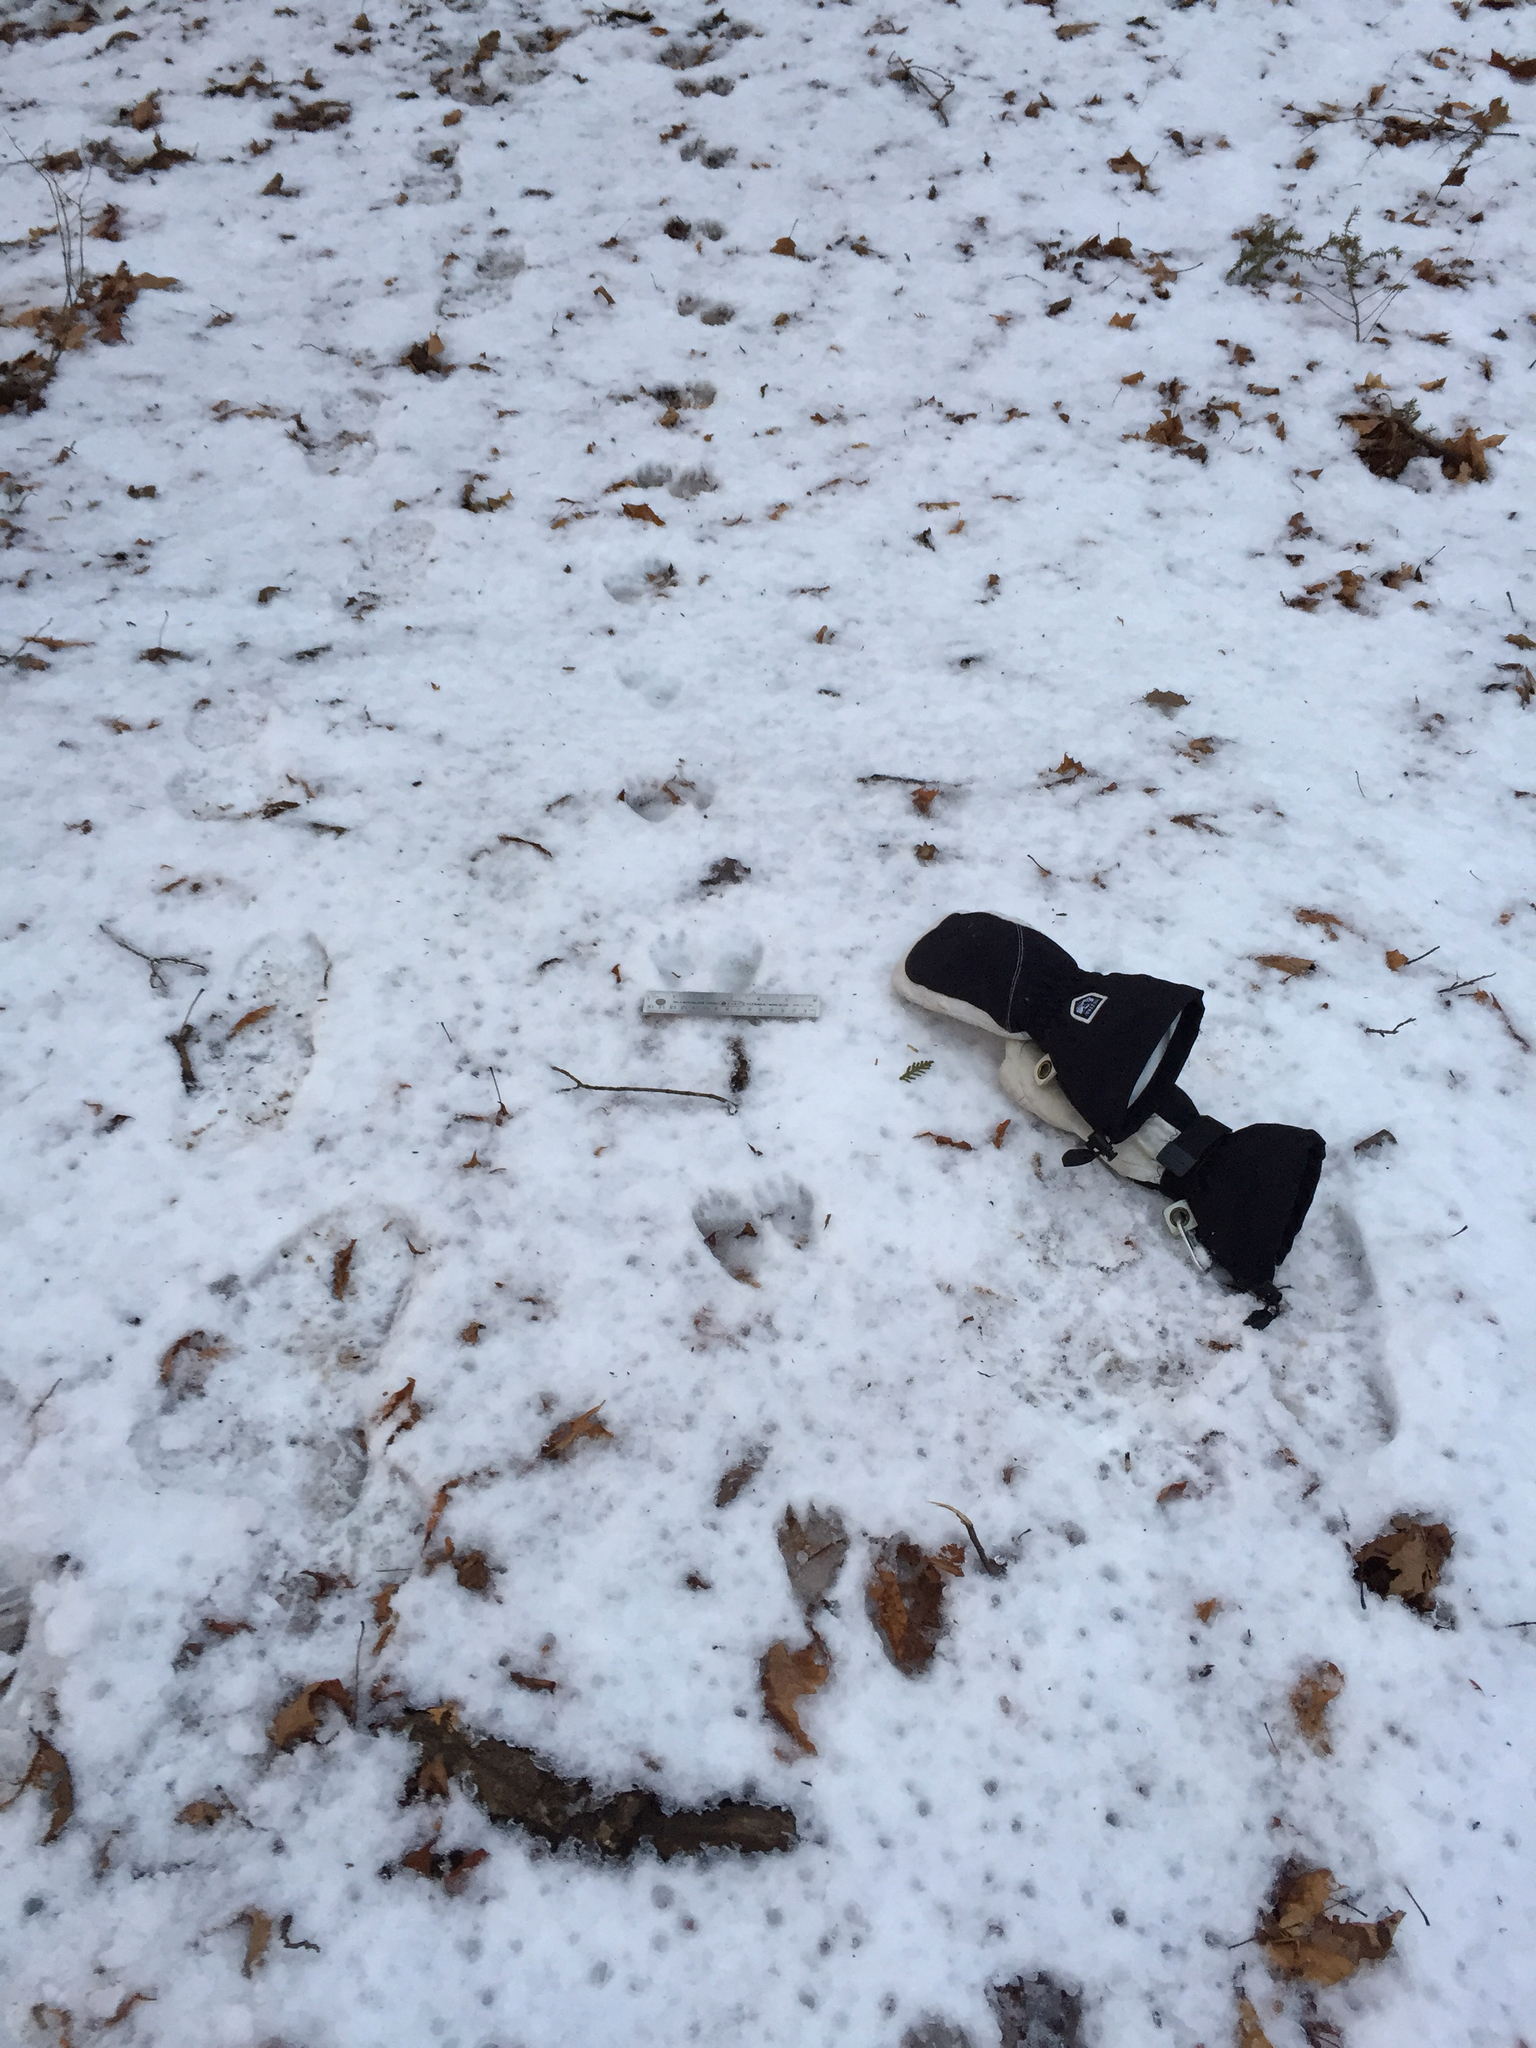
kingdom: Animalia
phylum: Chordata
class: Mammalia
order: Carnivora
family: Procyonidae
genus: Procyon
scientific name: Procyon lotor
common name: Raccoon
